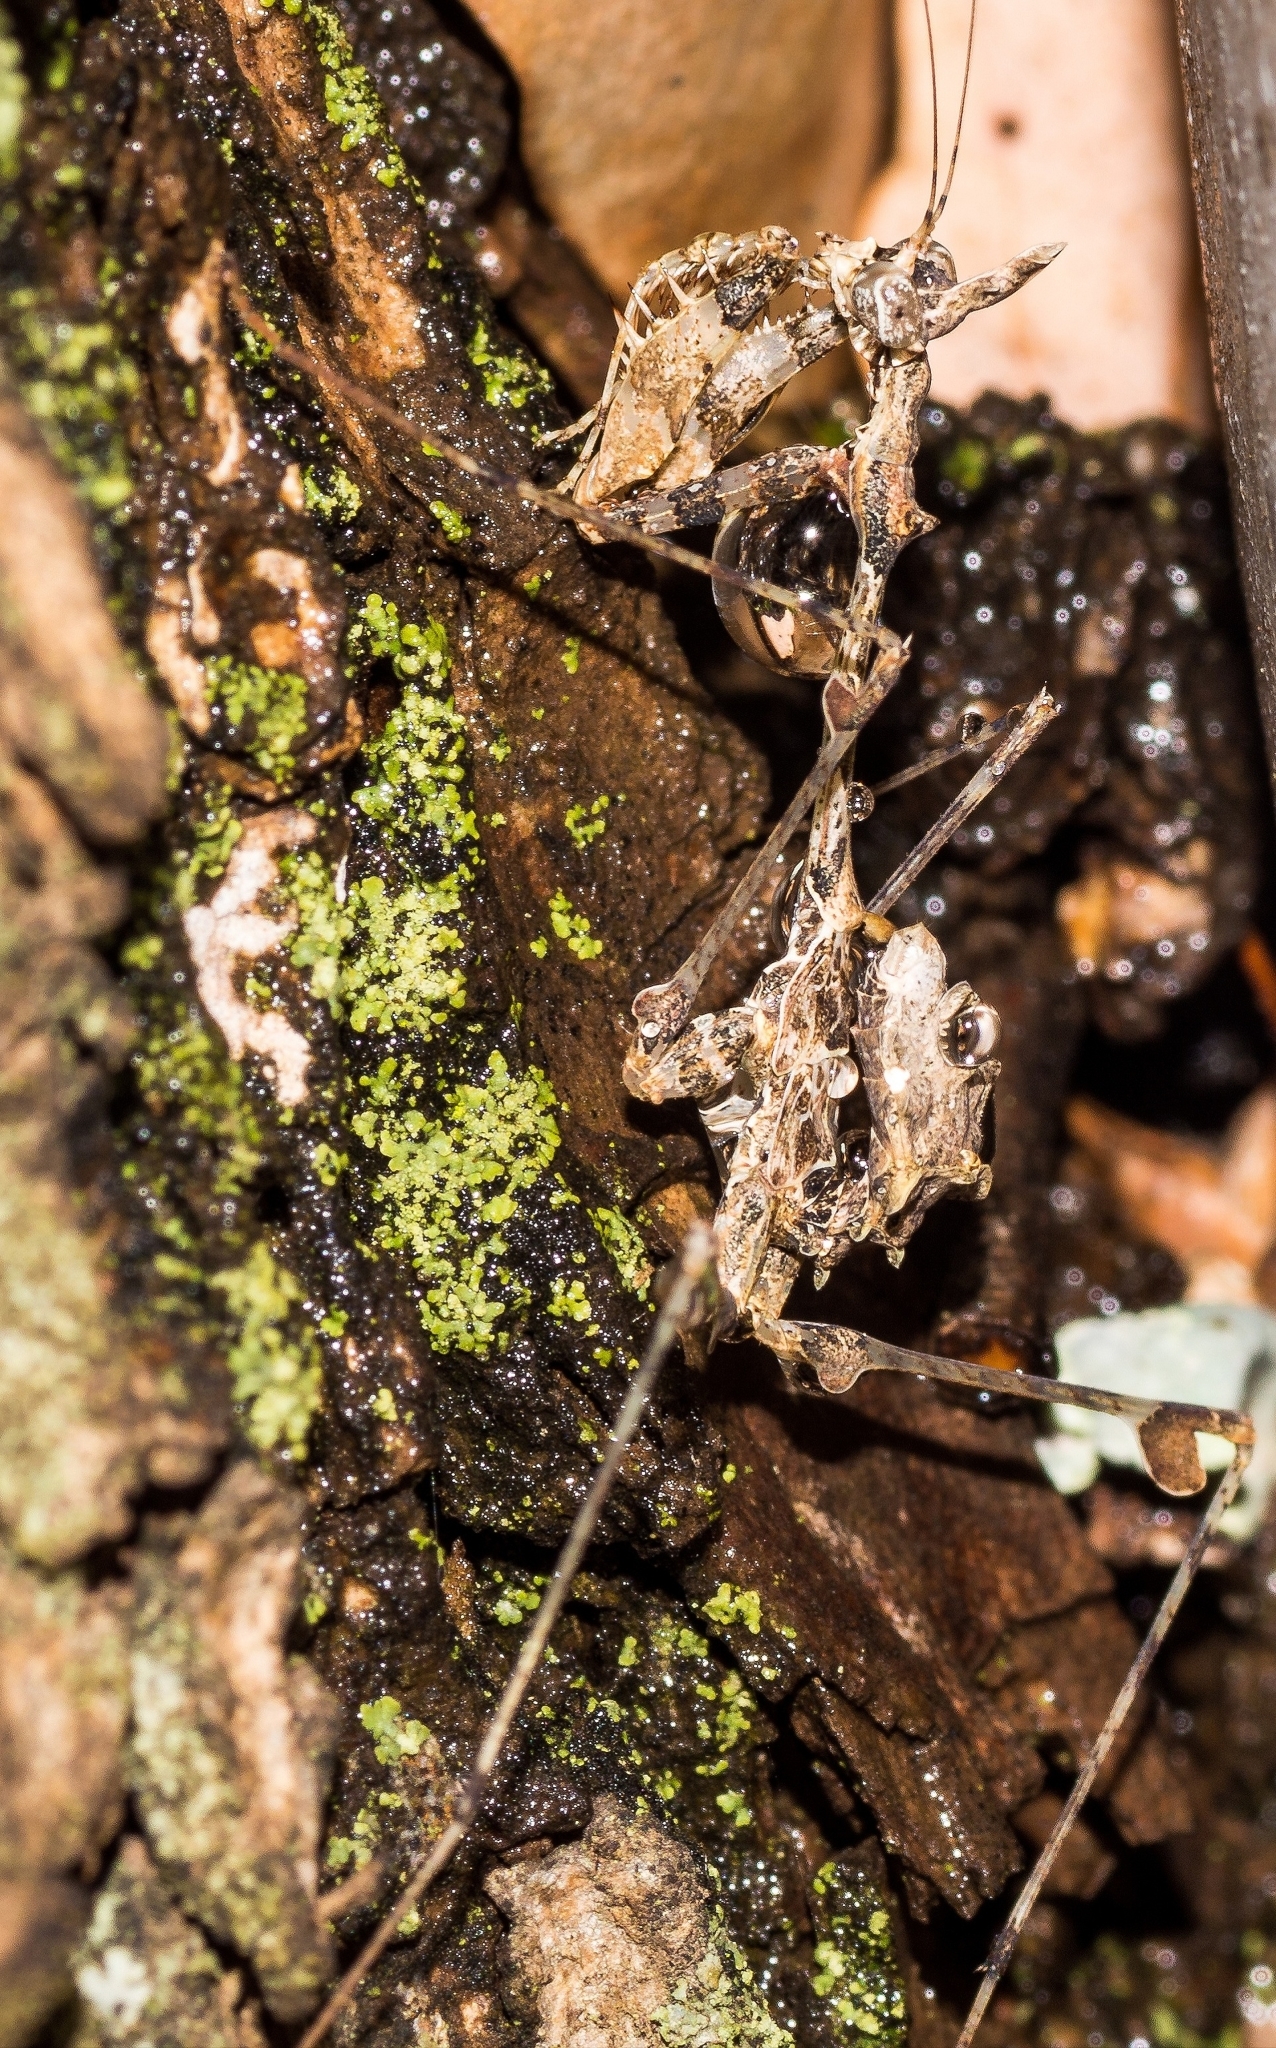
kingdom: Animalia
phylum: Arthropoda
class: Insecta
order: Mantodea
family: Hymenopodidae
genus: Sibylla
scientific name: Sibylla pretiosa
